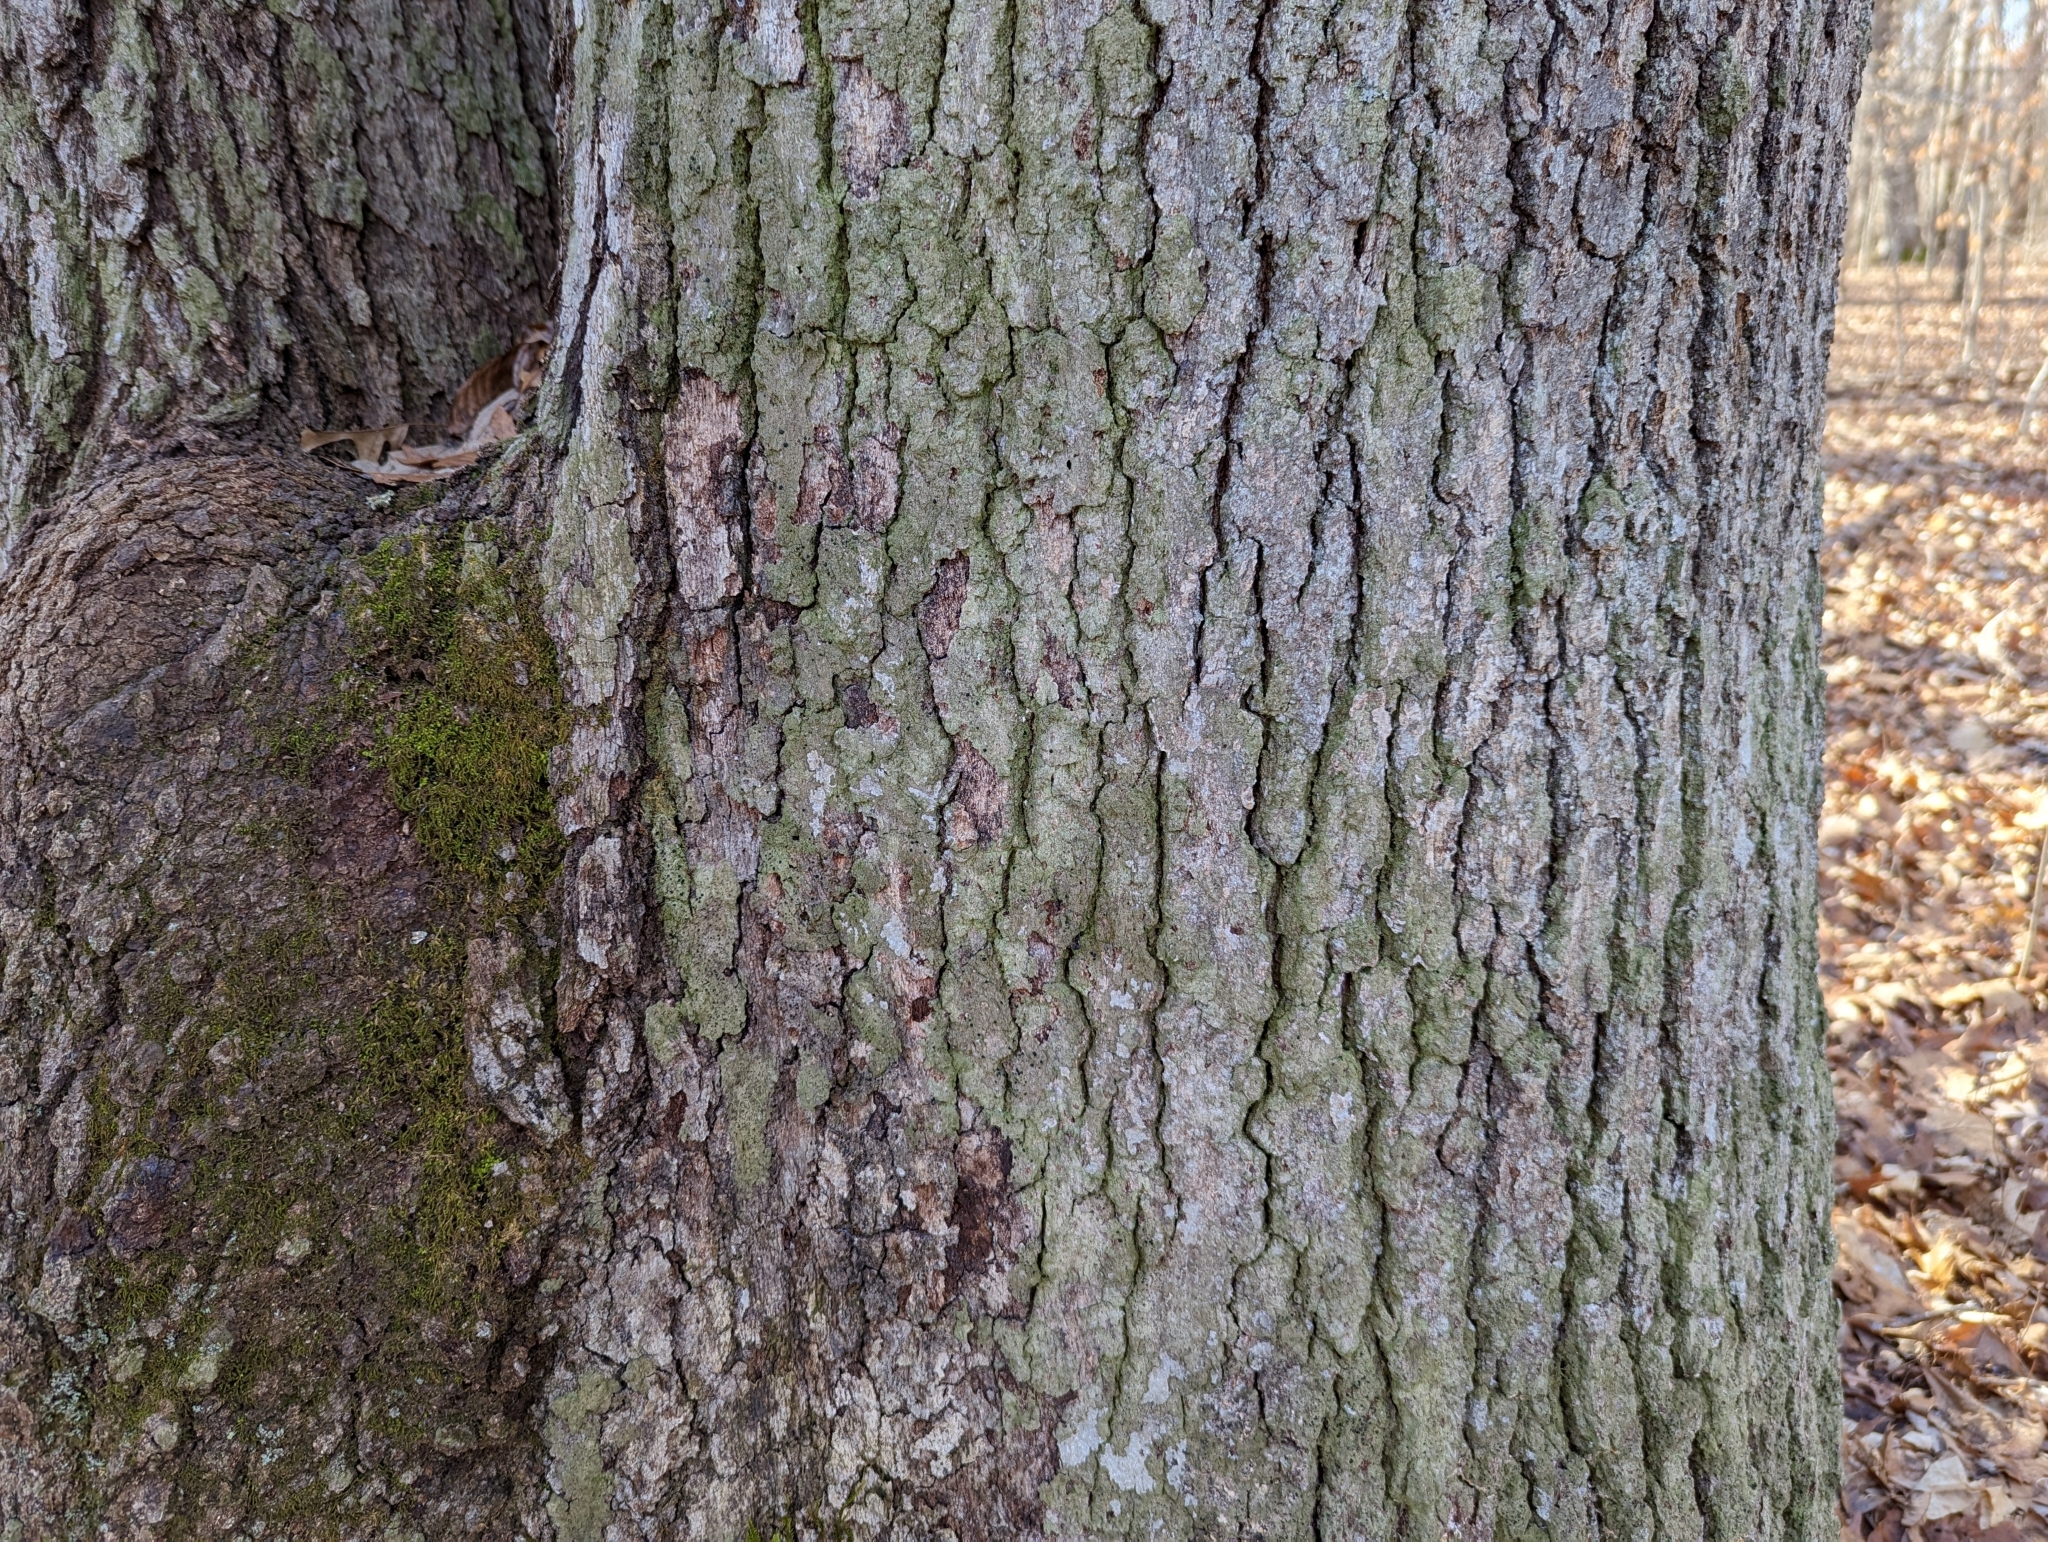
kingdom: Fungi
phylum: Ascomycota
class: Lecanoromycetes
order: Lecanorales
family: Ramalinaceae
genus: Bacidia
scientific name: Bacidia schweinitzii
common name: Surprise lichen
